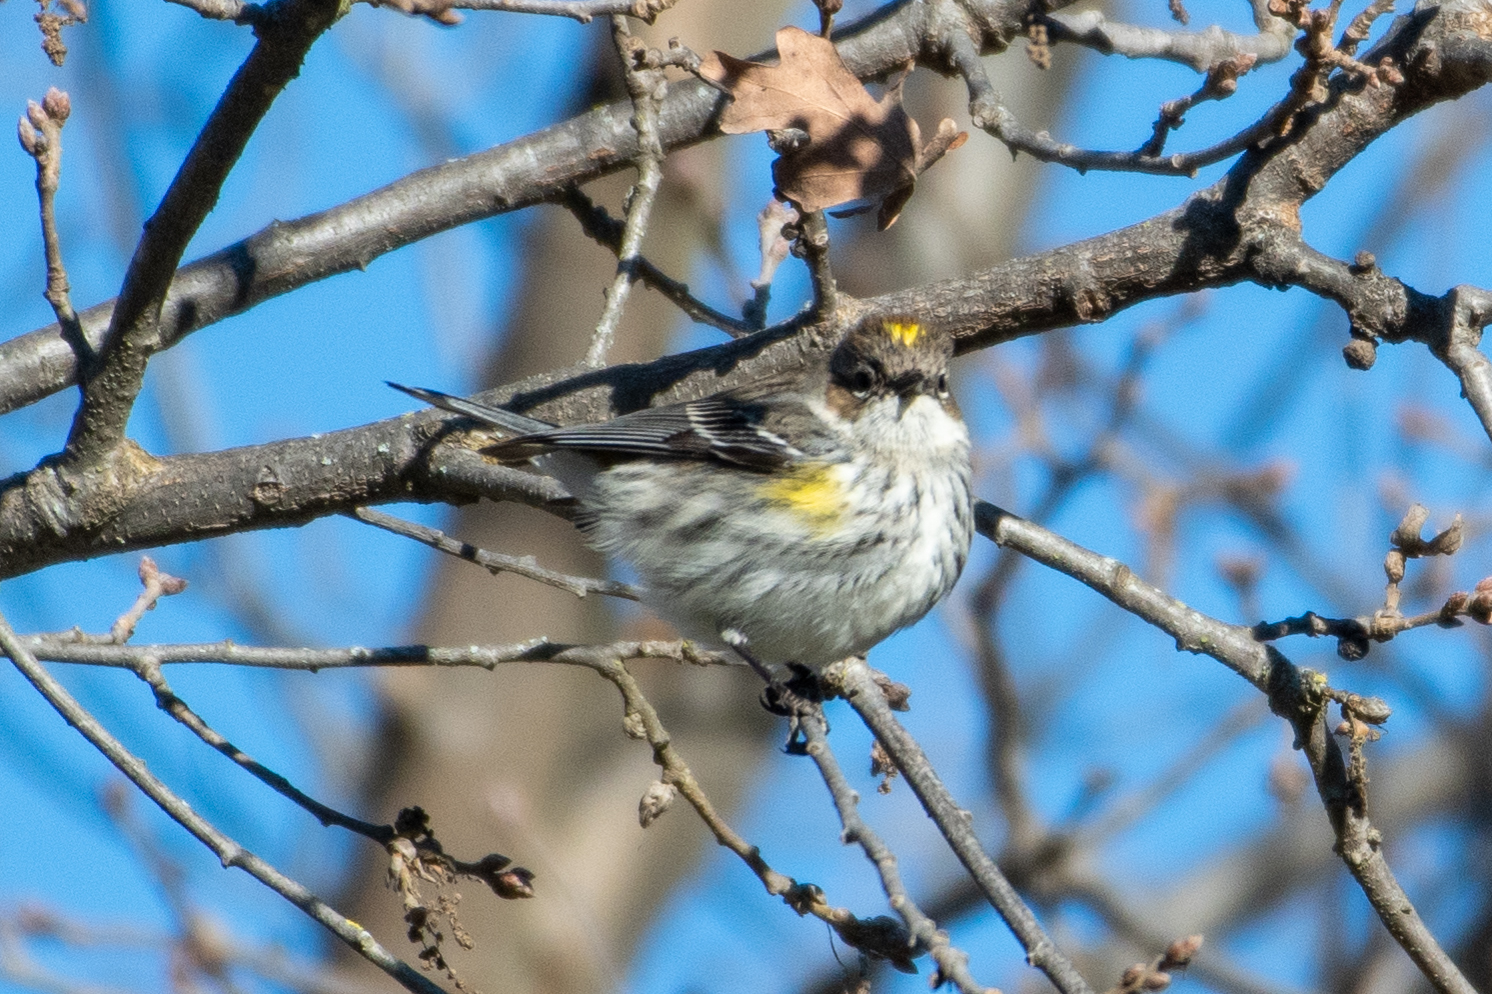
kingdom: Animalia
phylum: Chordata
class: Aves
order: Passeriformes
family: Parulidae
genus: Setophaga
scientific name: Setophaga coronata
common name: Myrtle warbler
